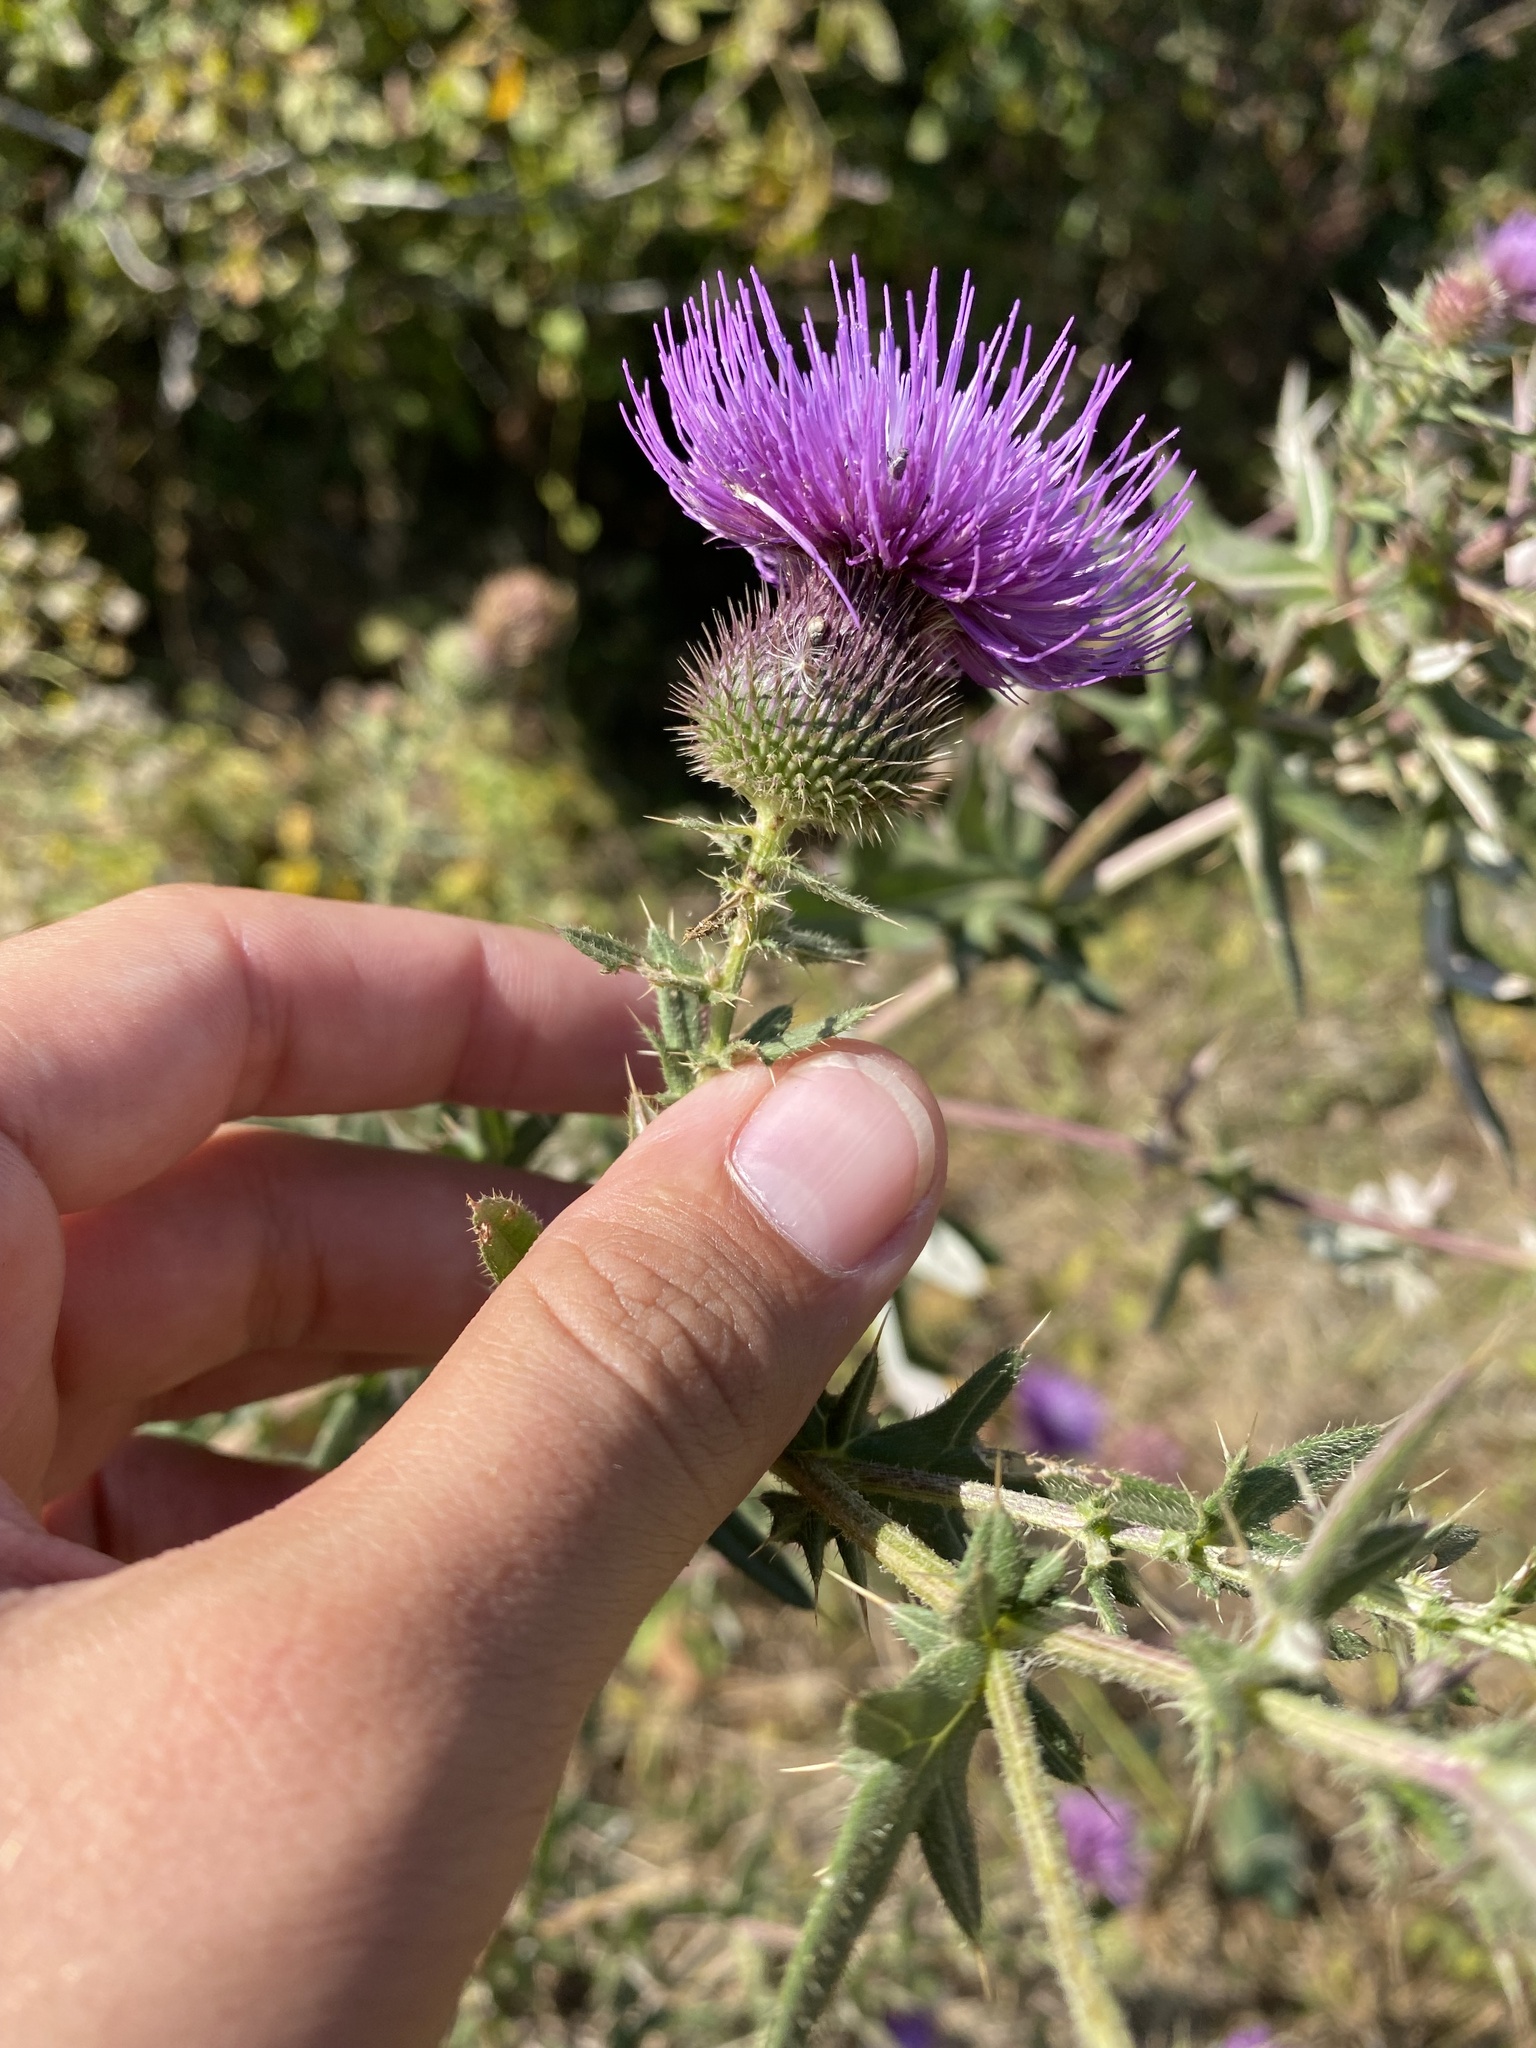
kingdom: Plantae
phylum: Tracheophyta
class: Magnoliopsida
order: Asterales
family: Asteraceae
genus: Cirsium
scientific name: Cirsium serrulatum
